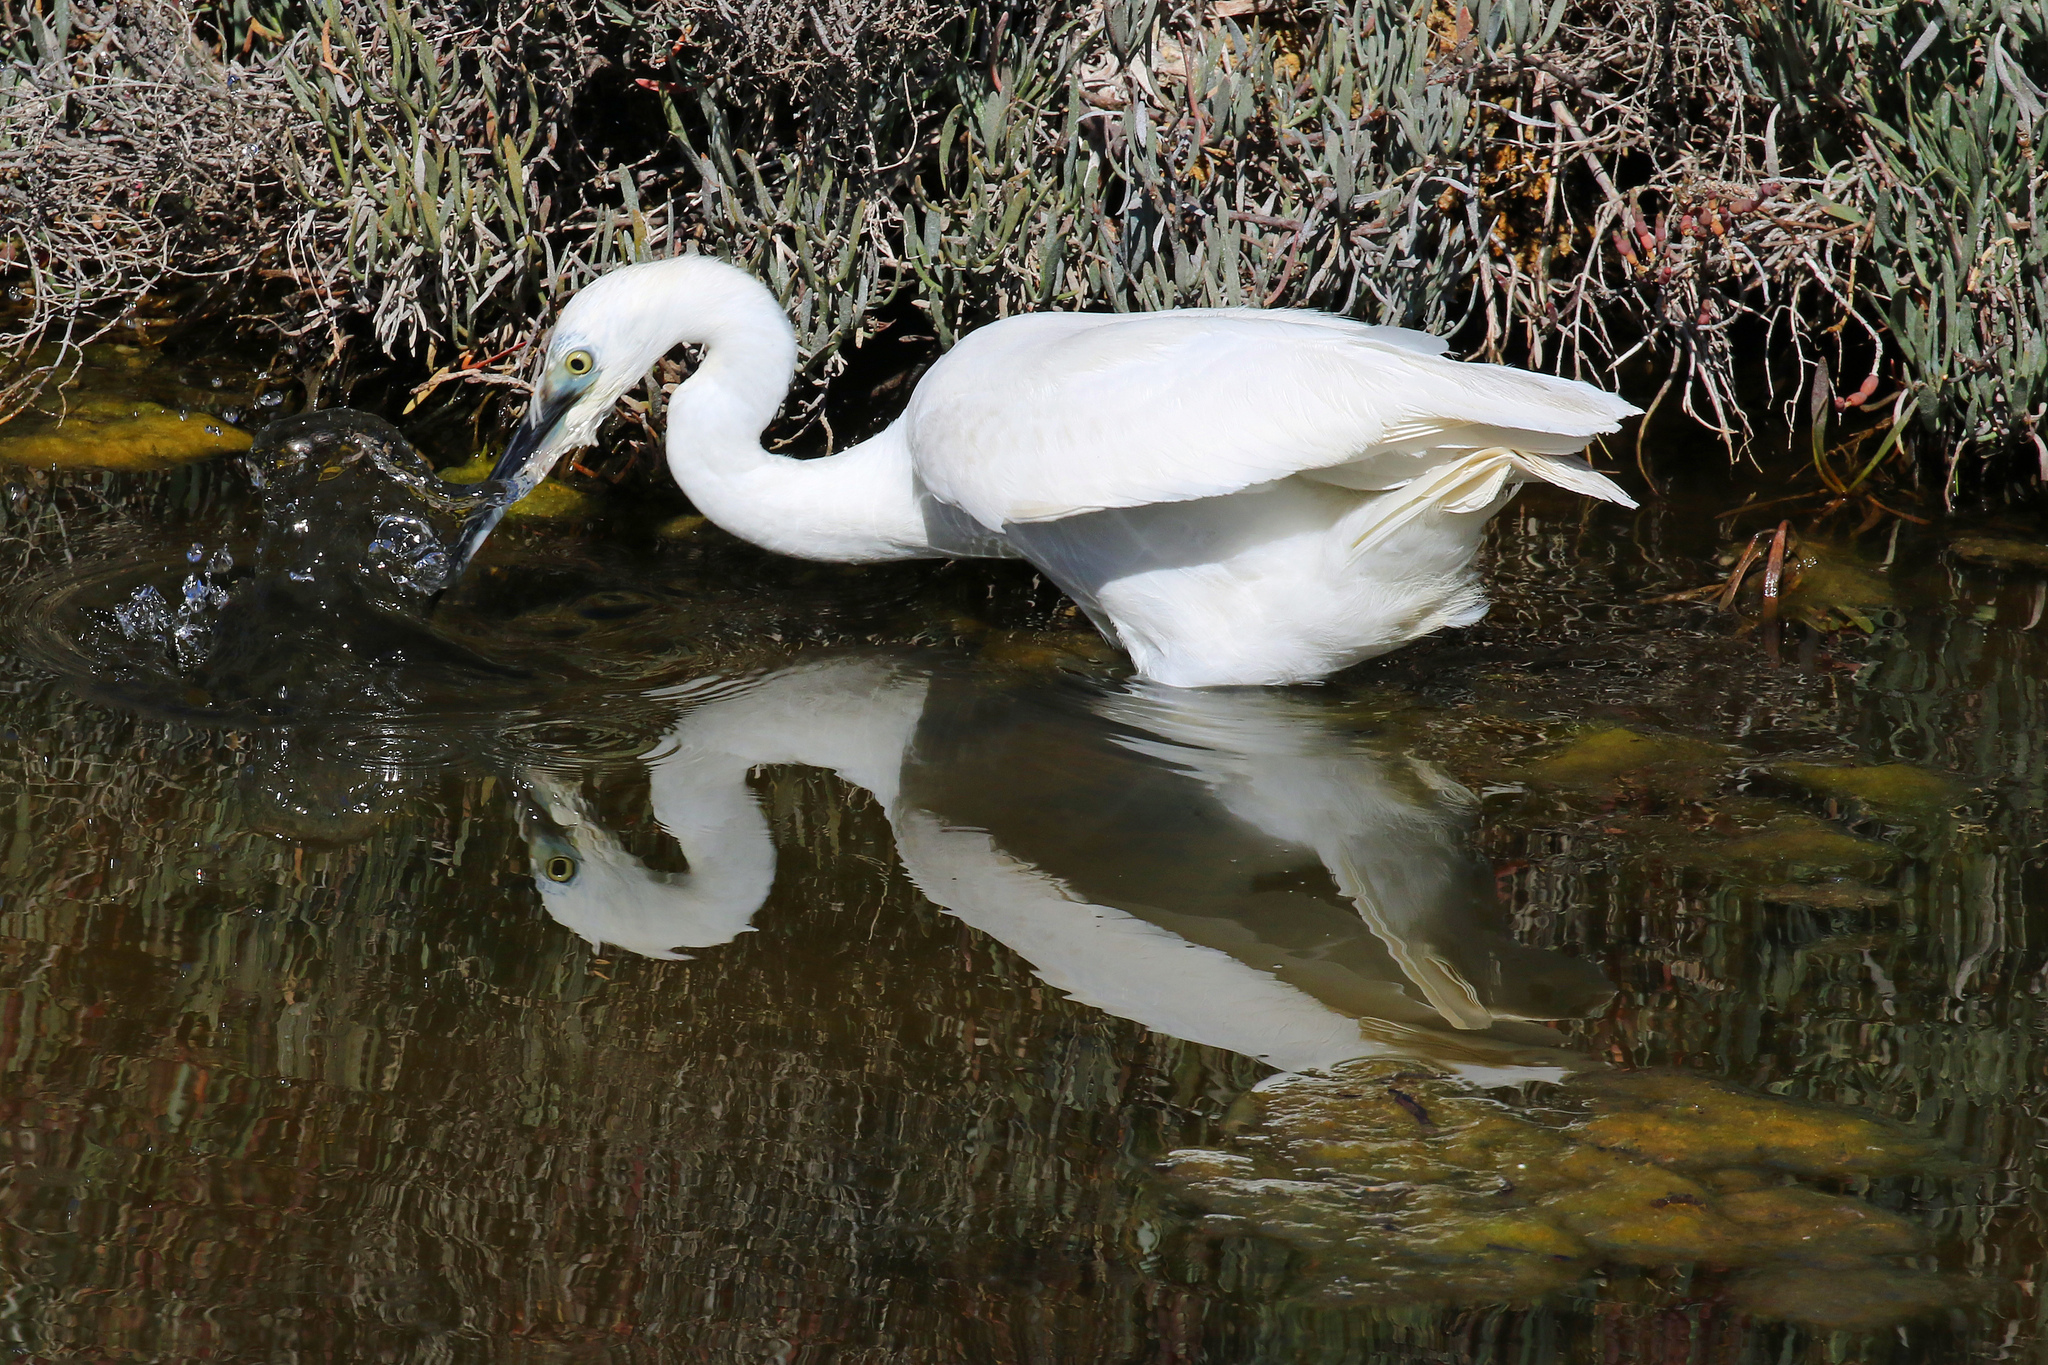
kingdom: Animalia
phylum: Chordata
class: Aves
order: Pelecaniformes
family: Ardeidae
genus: Egretta
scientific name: Egretta garzetta
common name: Little egret
